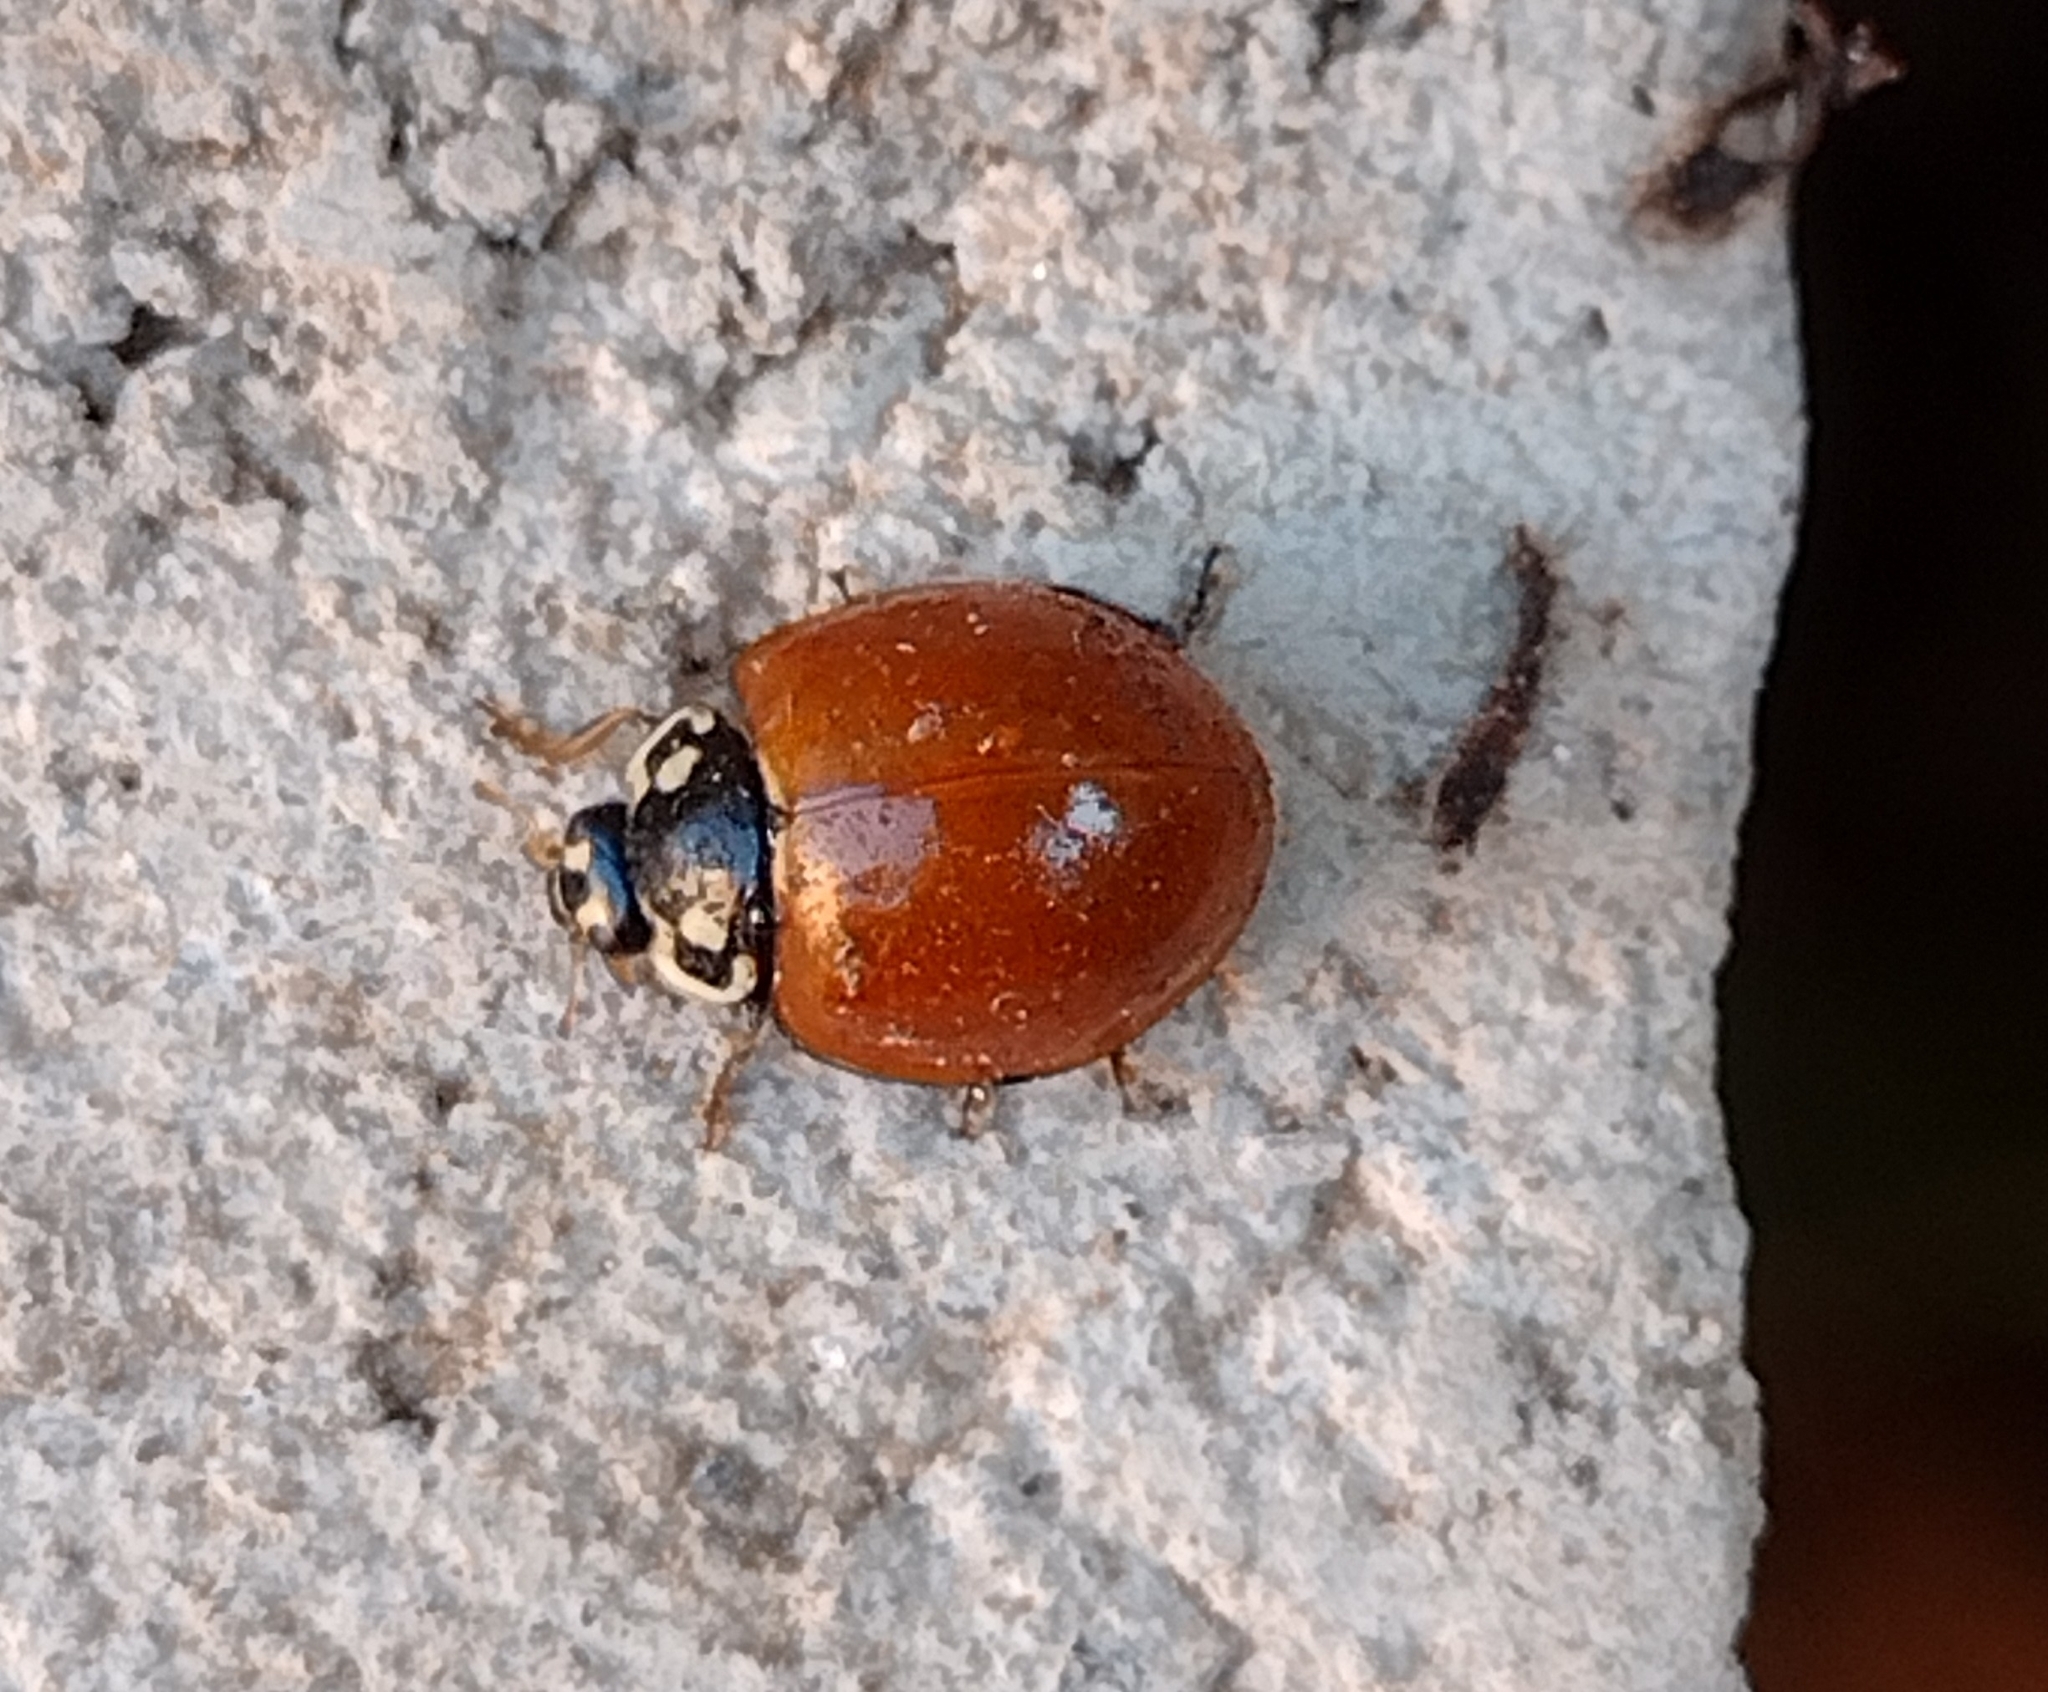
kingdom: Animalia
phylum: Arthropoda
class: Insecta
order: Coleoptera
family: Coccinellidae
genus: Cycloneda
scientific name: Cycloneda sanguinea
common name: Ladybird beetle
